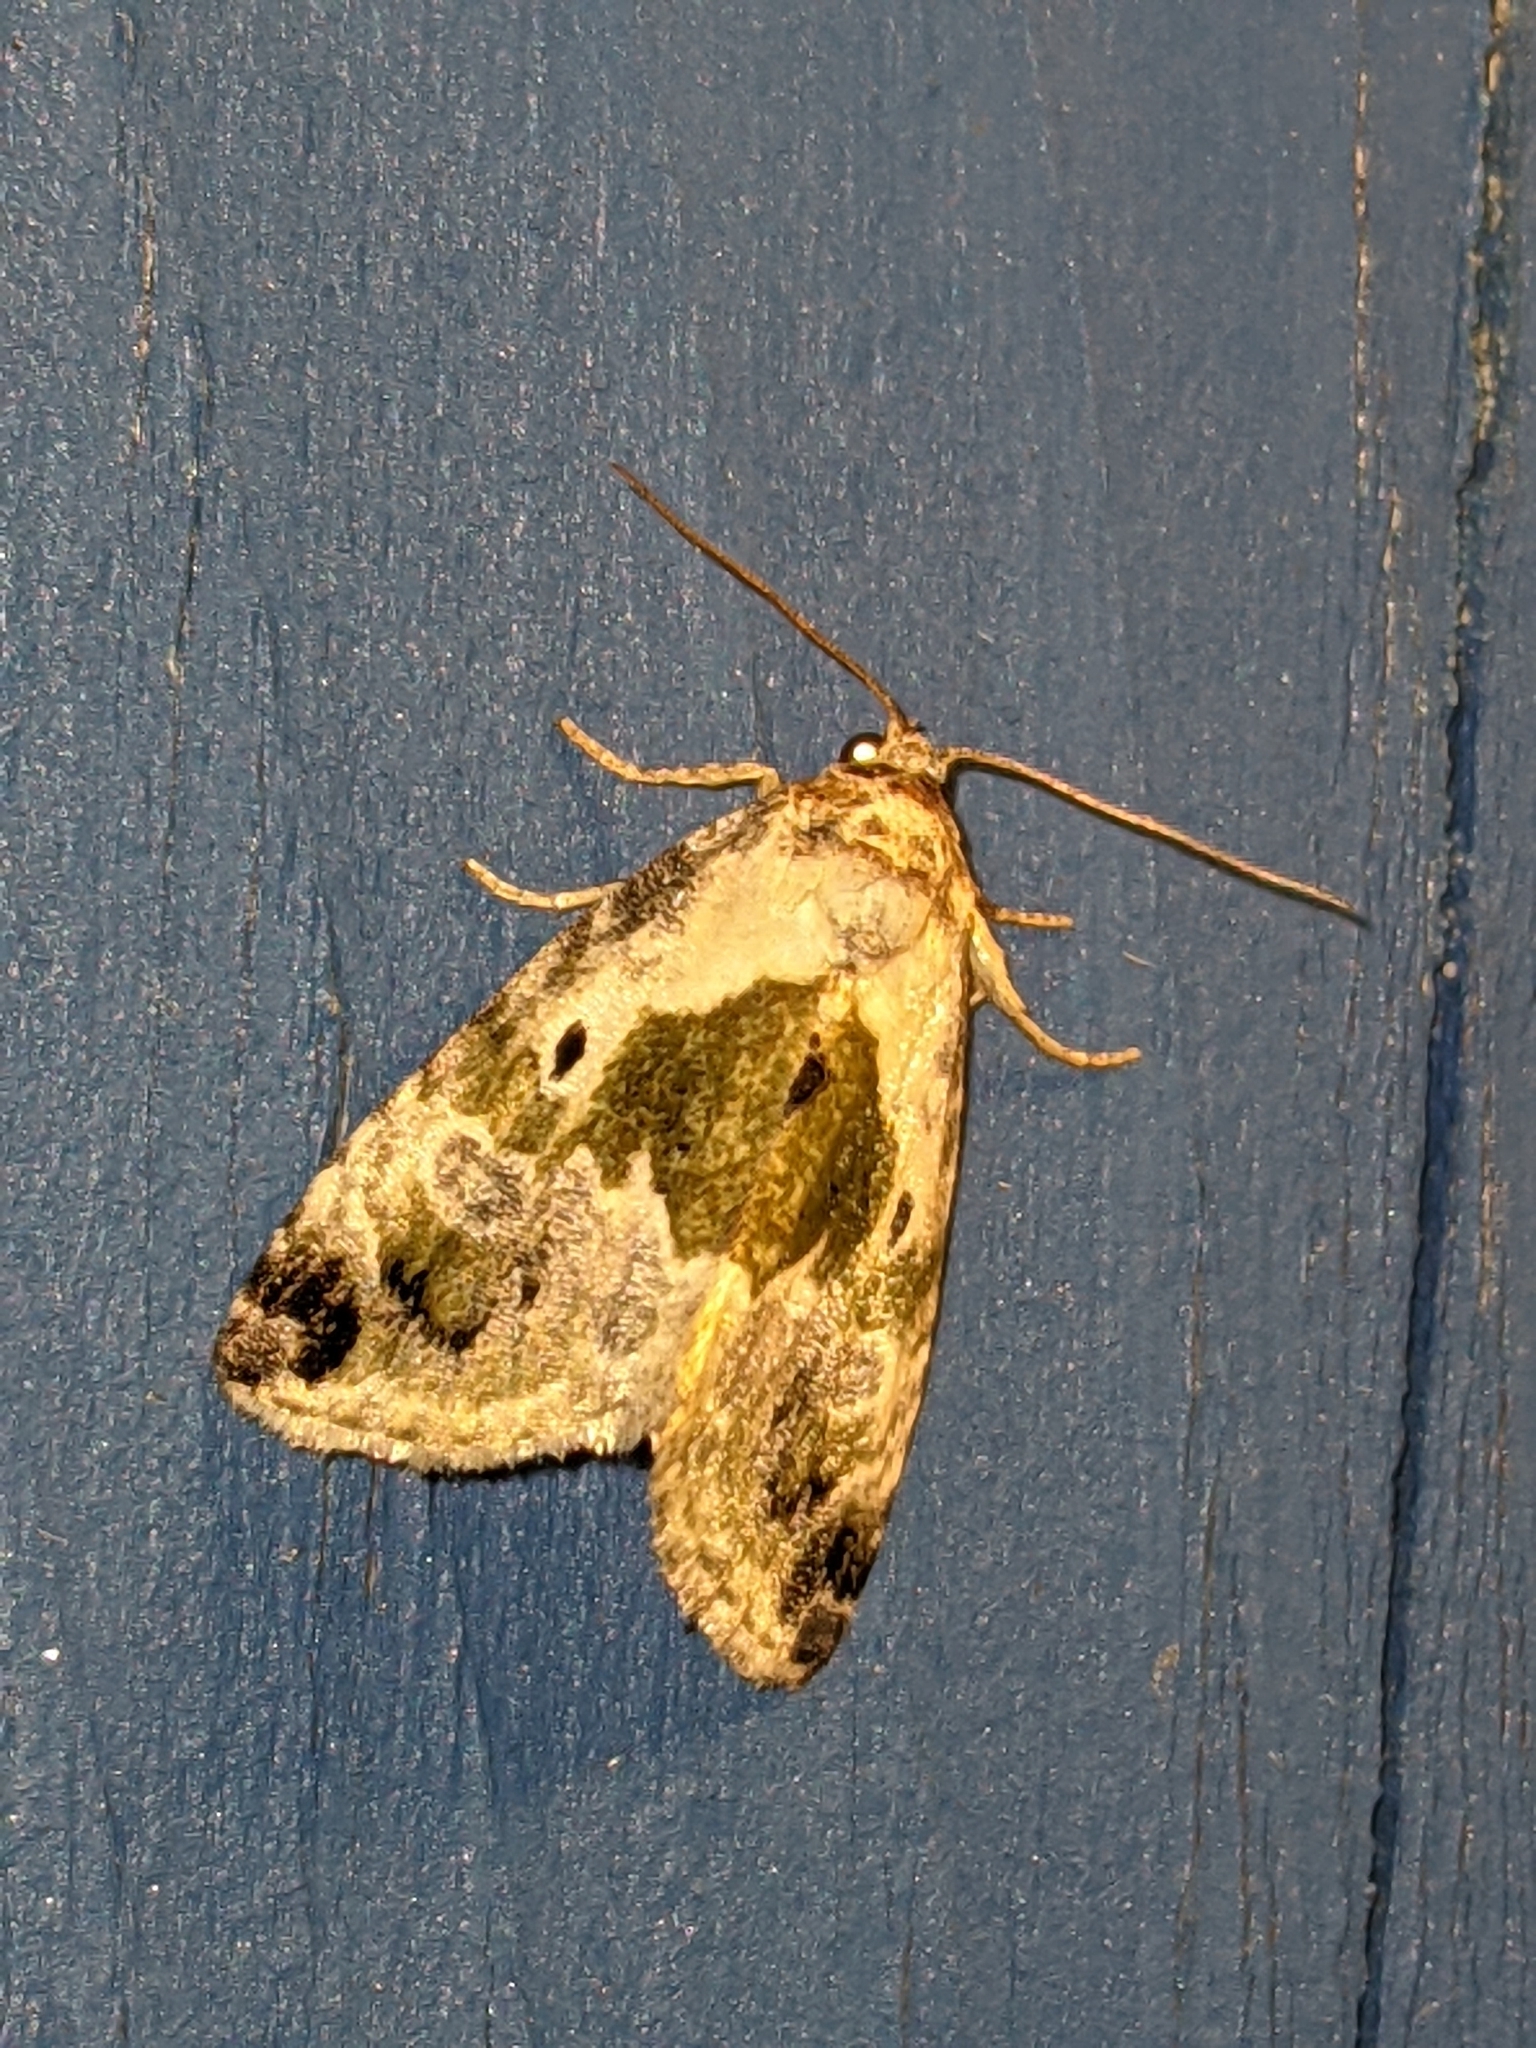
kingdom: Animalia
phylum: Arthropoda
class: Insecta
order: Lepidoptera
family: Noctuidae
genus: Maliattha
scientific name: Maliattha synochitis
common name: Black-dotted glyph
